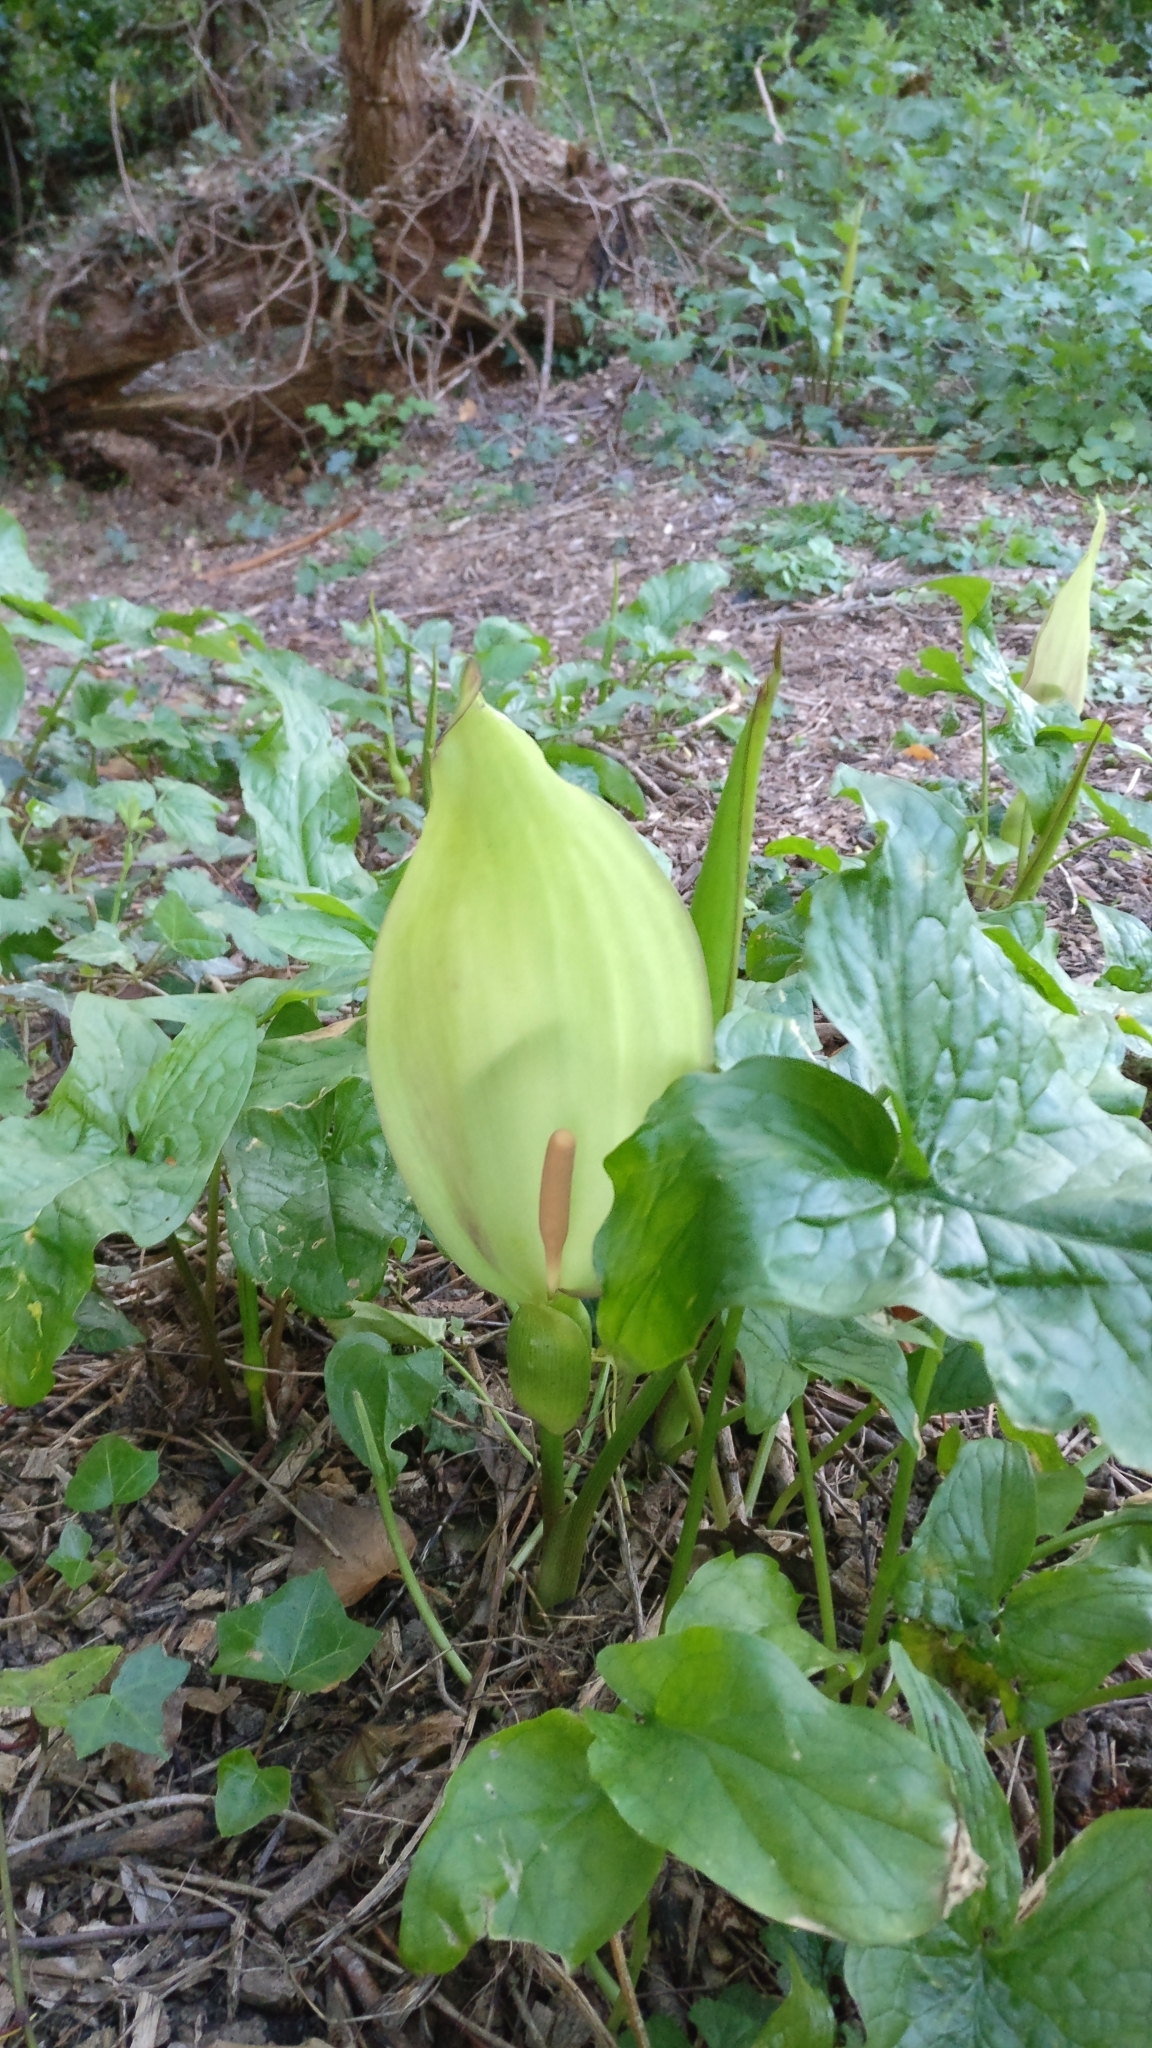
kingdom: Plantae
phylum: Tracheophyta
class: Liliopsida
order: Alismatales
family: Araceae
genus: Arum
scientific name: Arum maculatum
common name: Lords-and-ladies
